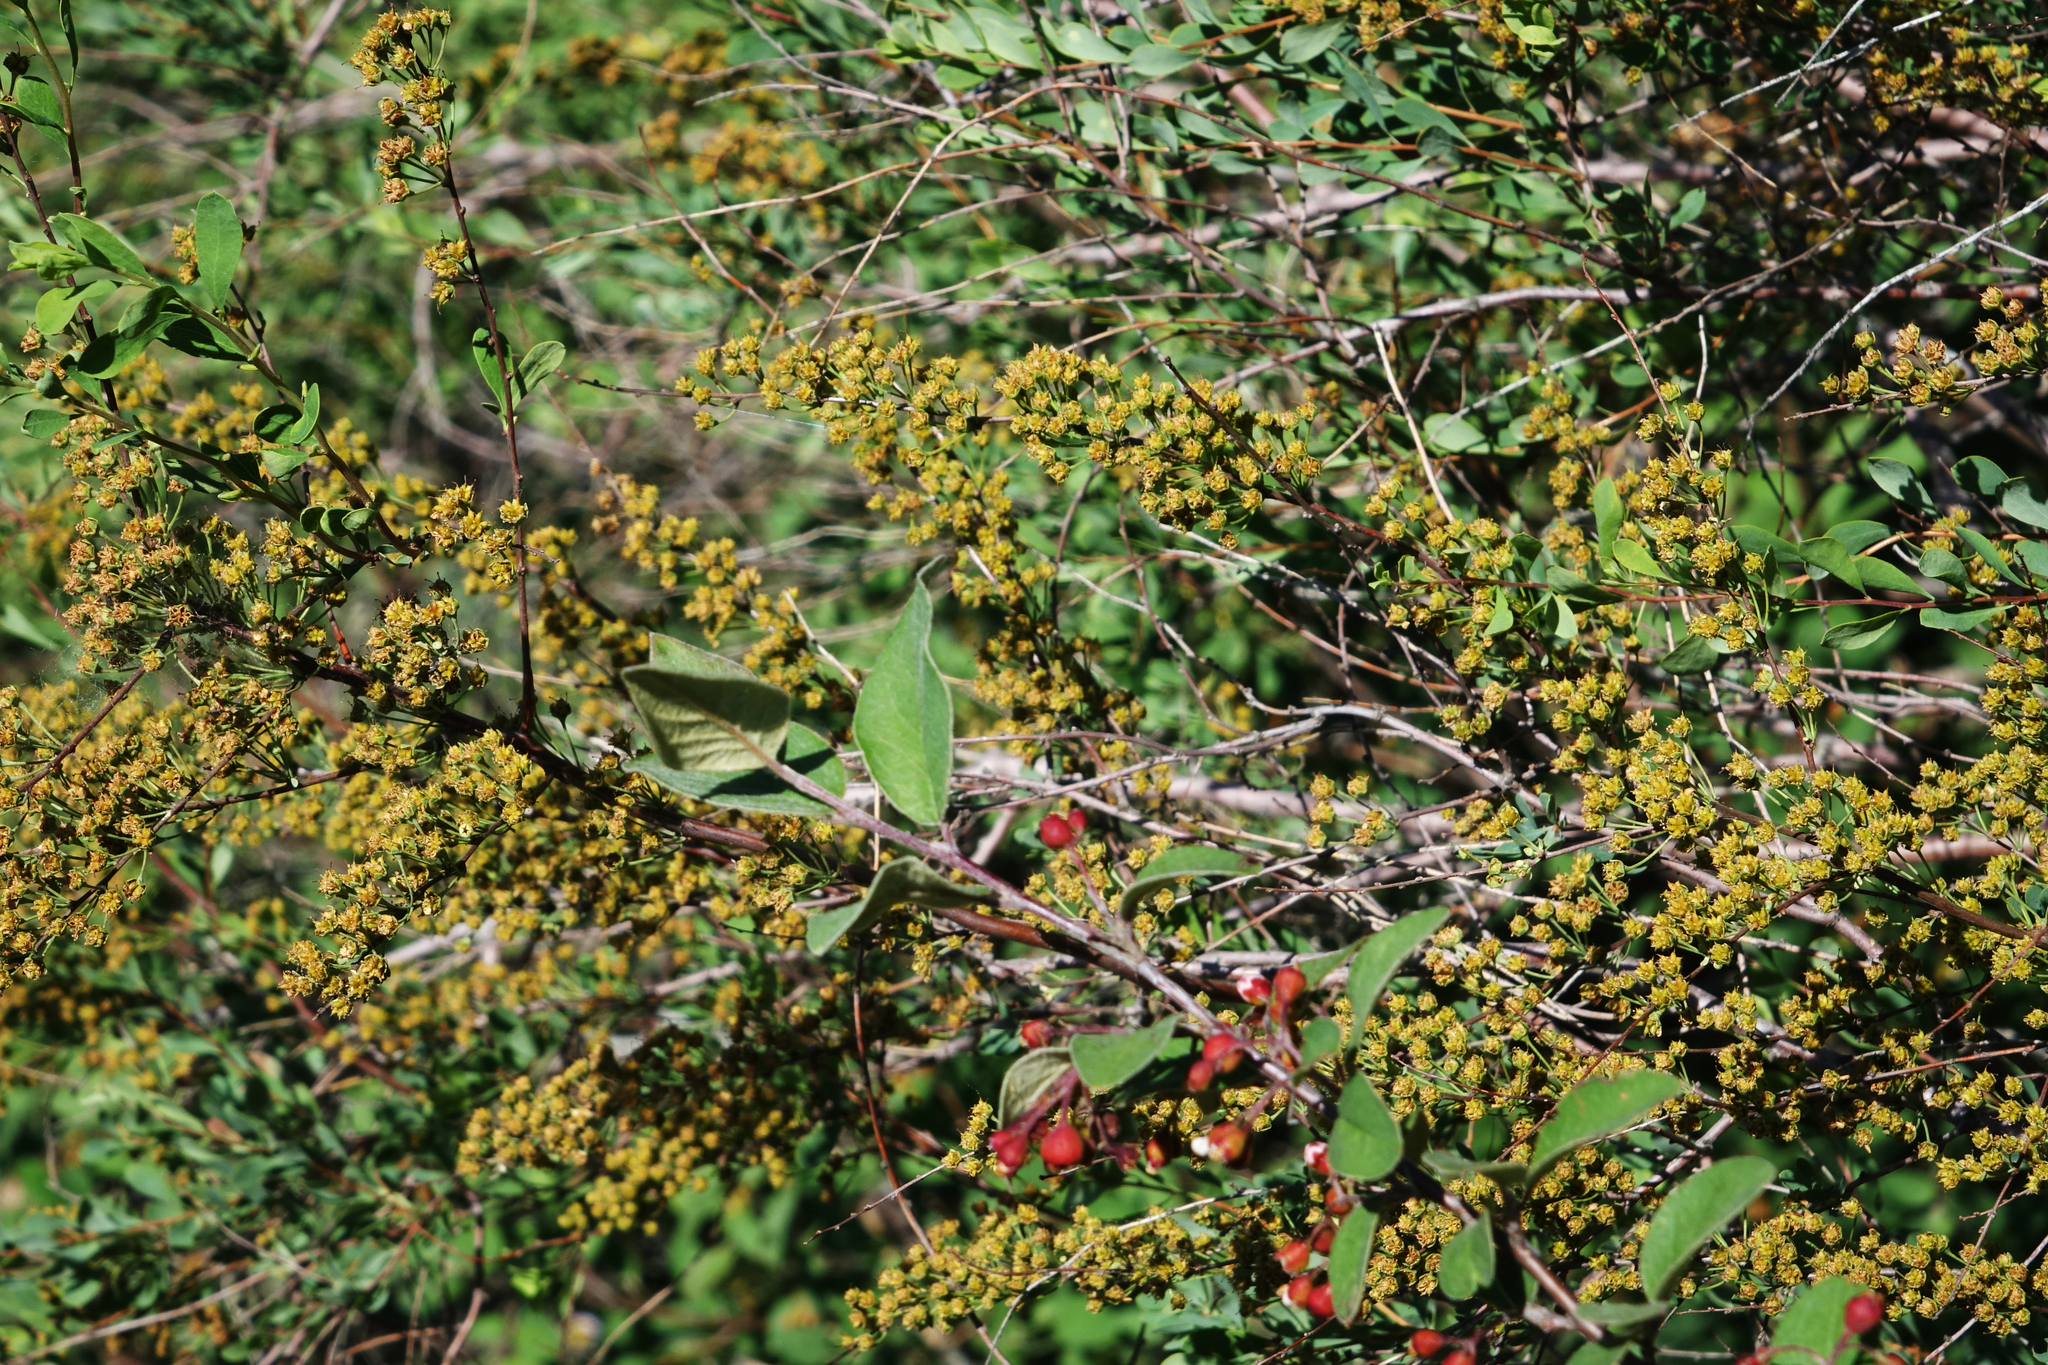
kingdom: Plantae
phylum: Tracheophyta
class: Magnoliopsida
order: Rosales
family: Rosaceae
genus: Spiraea
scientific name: Spiraea hypericifolia
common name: Iberian spirea
